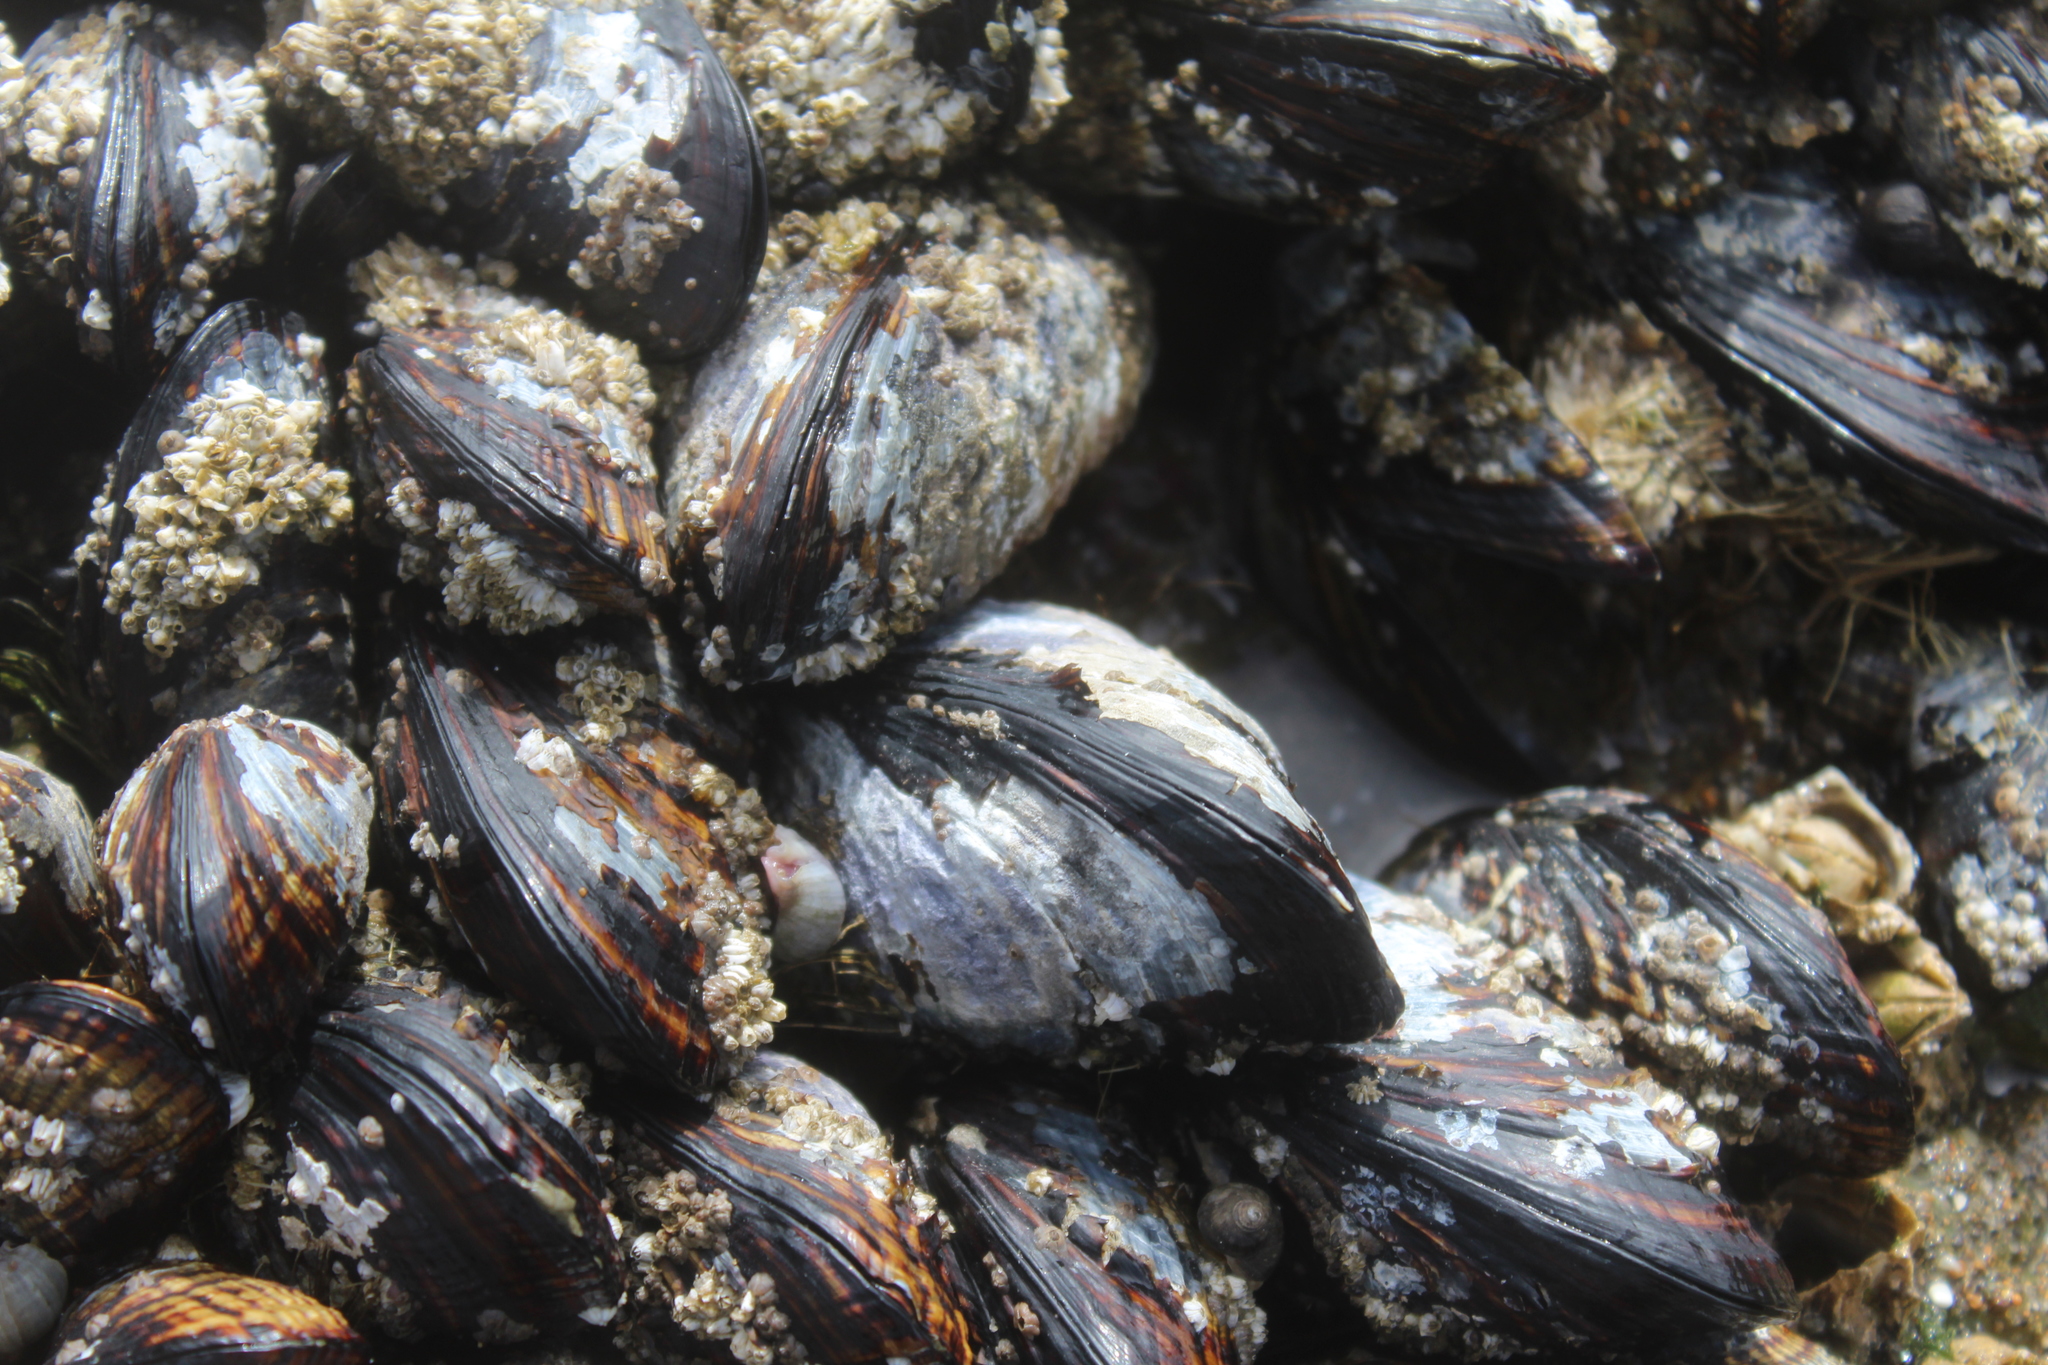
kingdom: Animalia
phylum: Mollusca
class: Bivalvia
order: Mytilida
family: Mytilidae
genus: Mytilus
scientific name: Mytilus californianus
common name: California mussel
